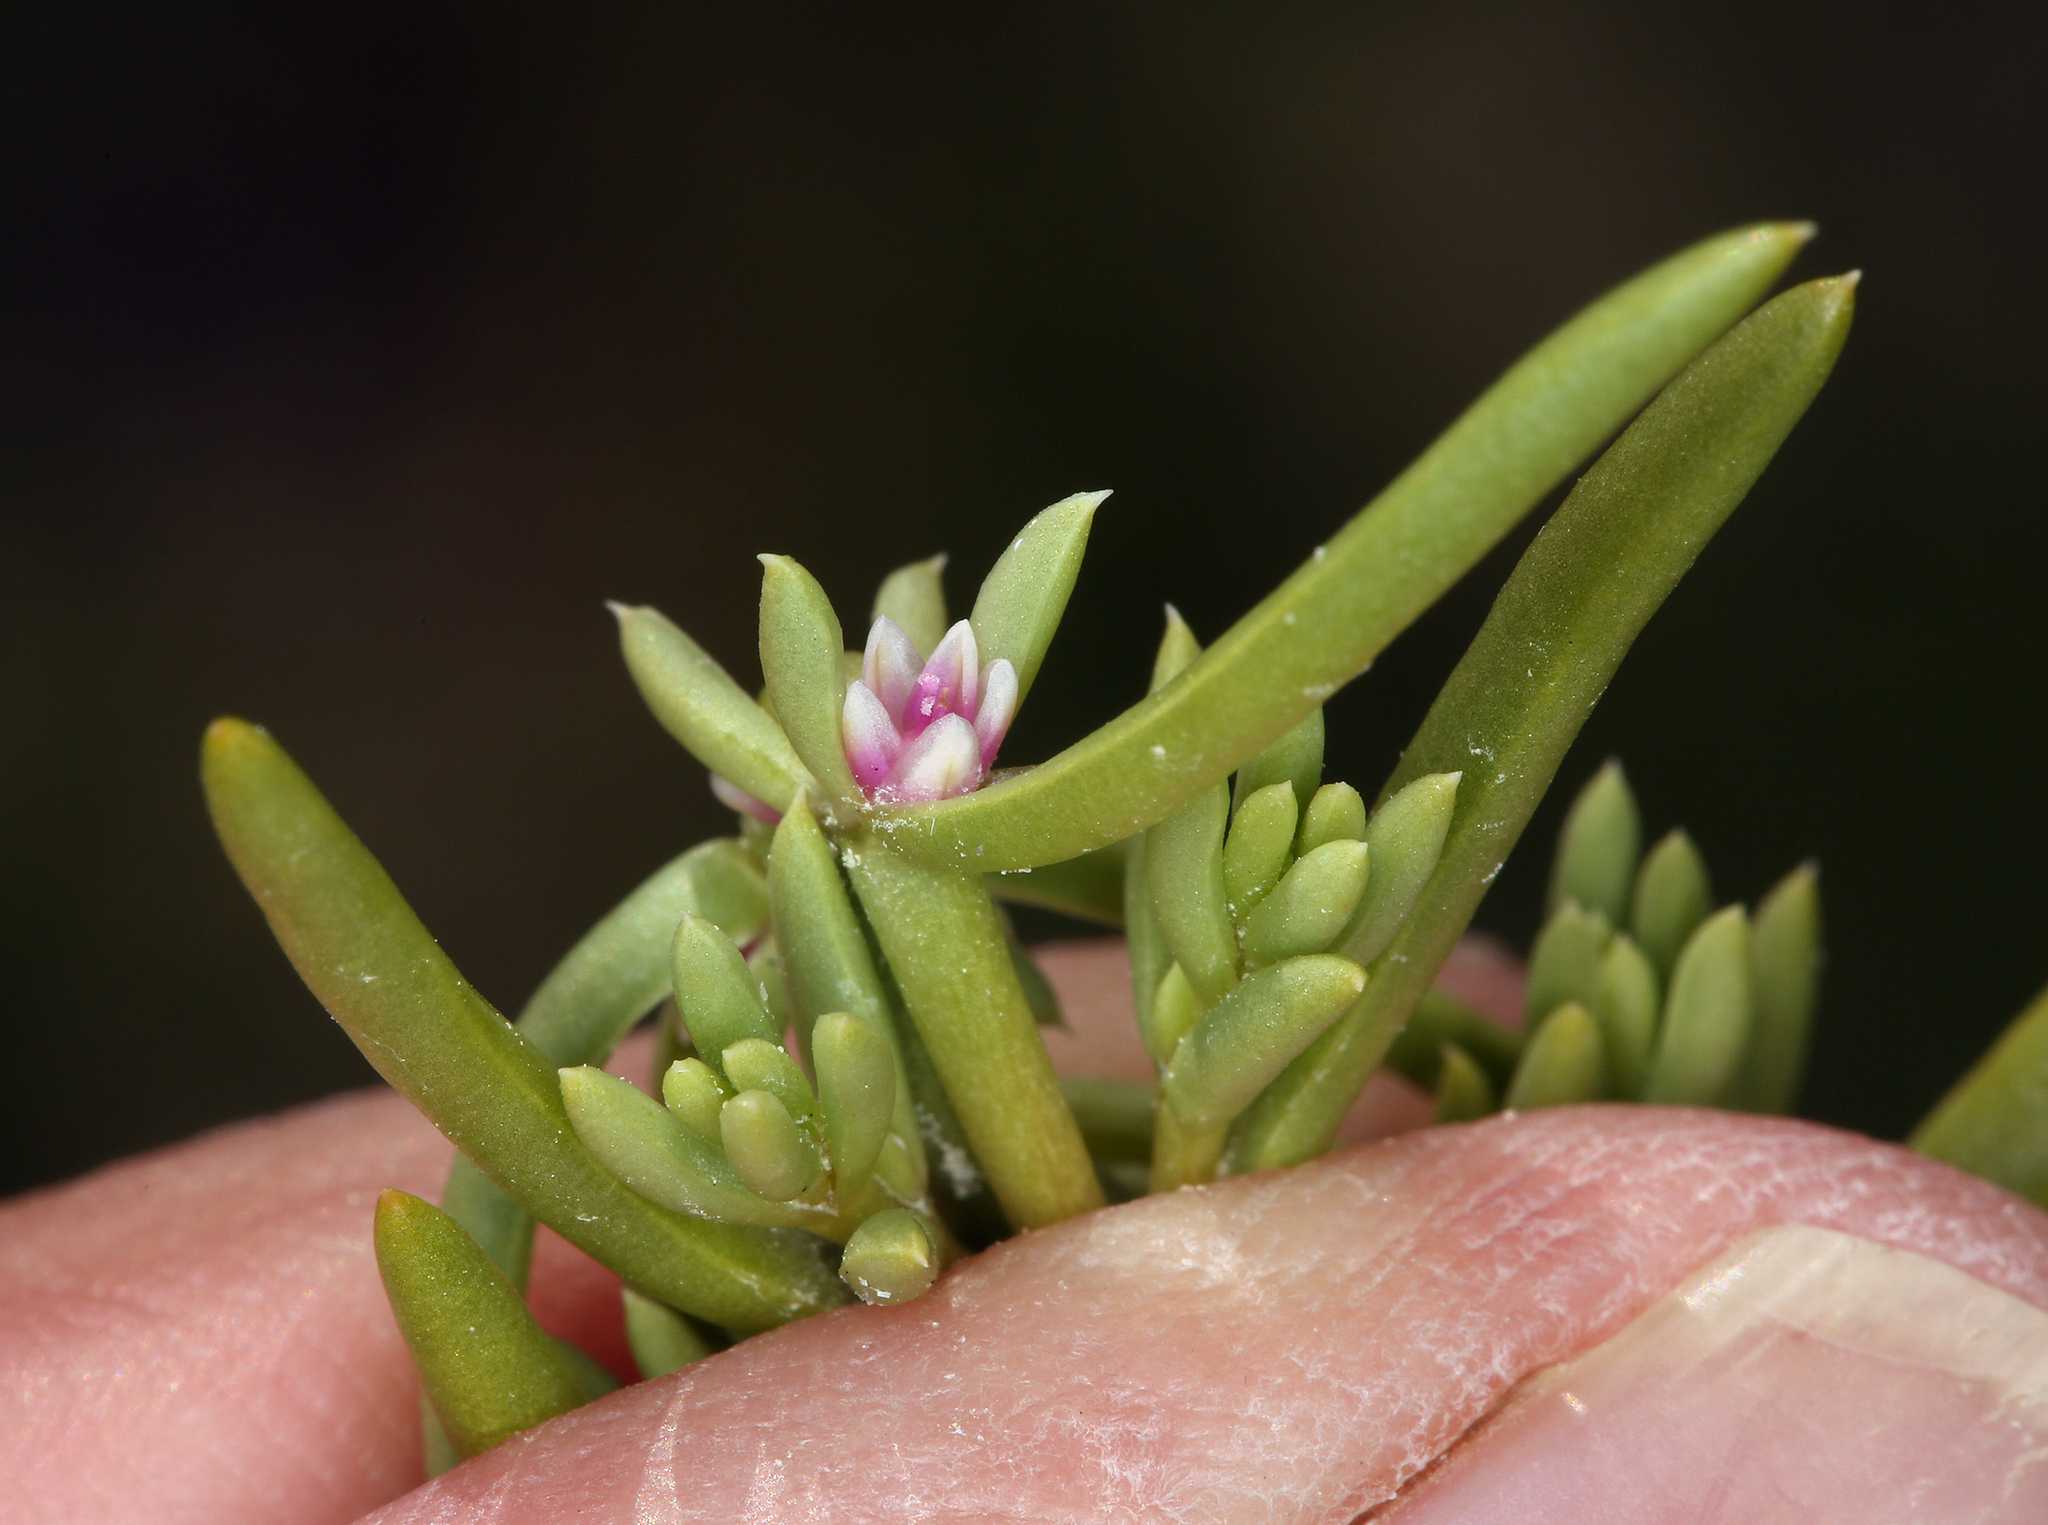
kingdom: Plantae
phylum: Tracheophyta
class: Magnoliopsida
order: Caryophyllales
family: Amaranthaceae
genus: Nitrophila
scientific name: Nitrophila occidentalis
